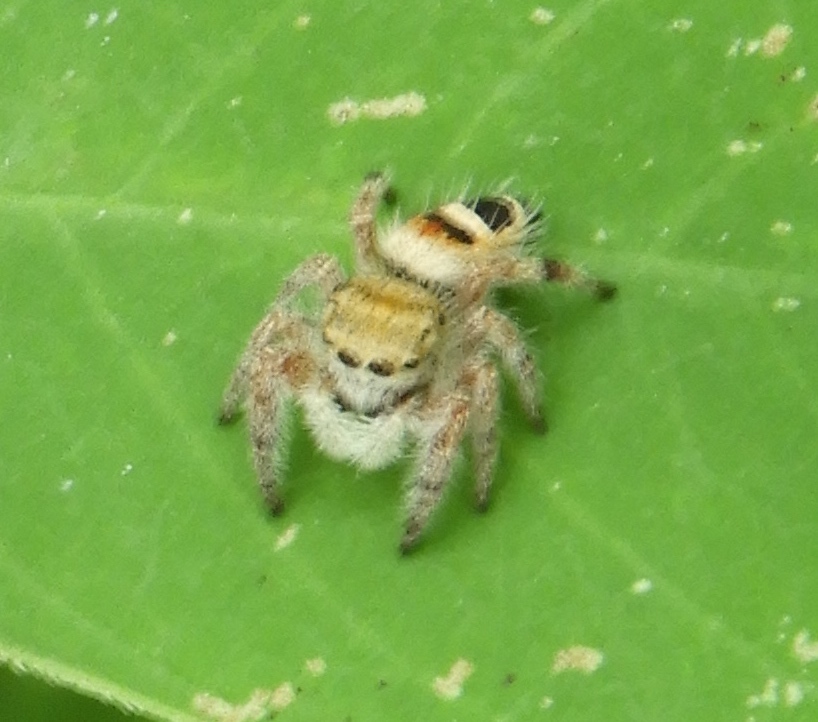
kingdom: Animalia
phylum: Arthropoda
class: Arachnida
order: Araneae
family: Salticidae
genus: Phidippus
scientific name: Phidippus pacosauritus
